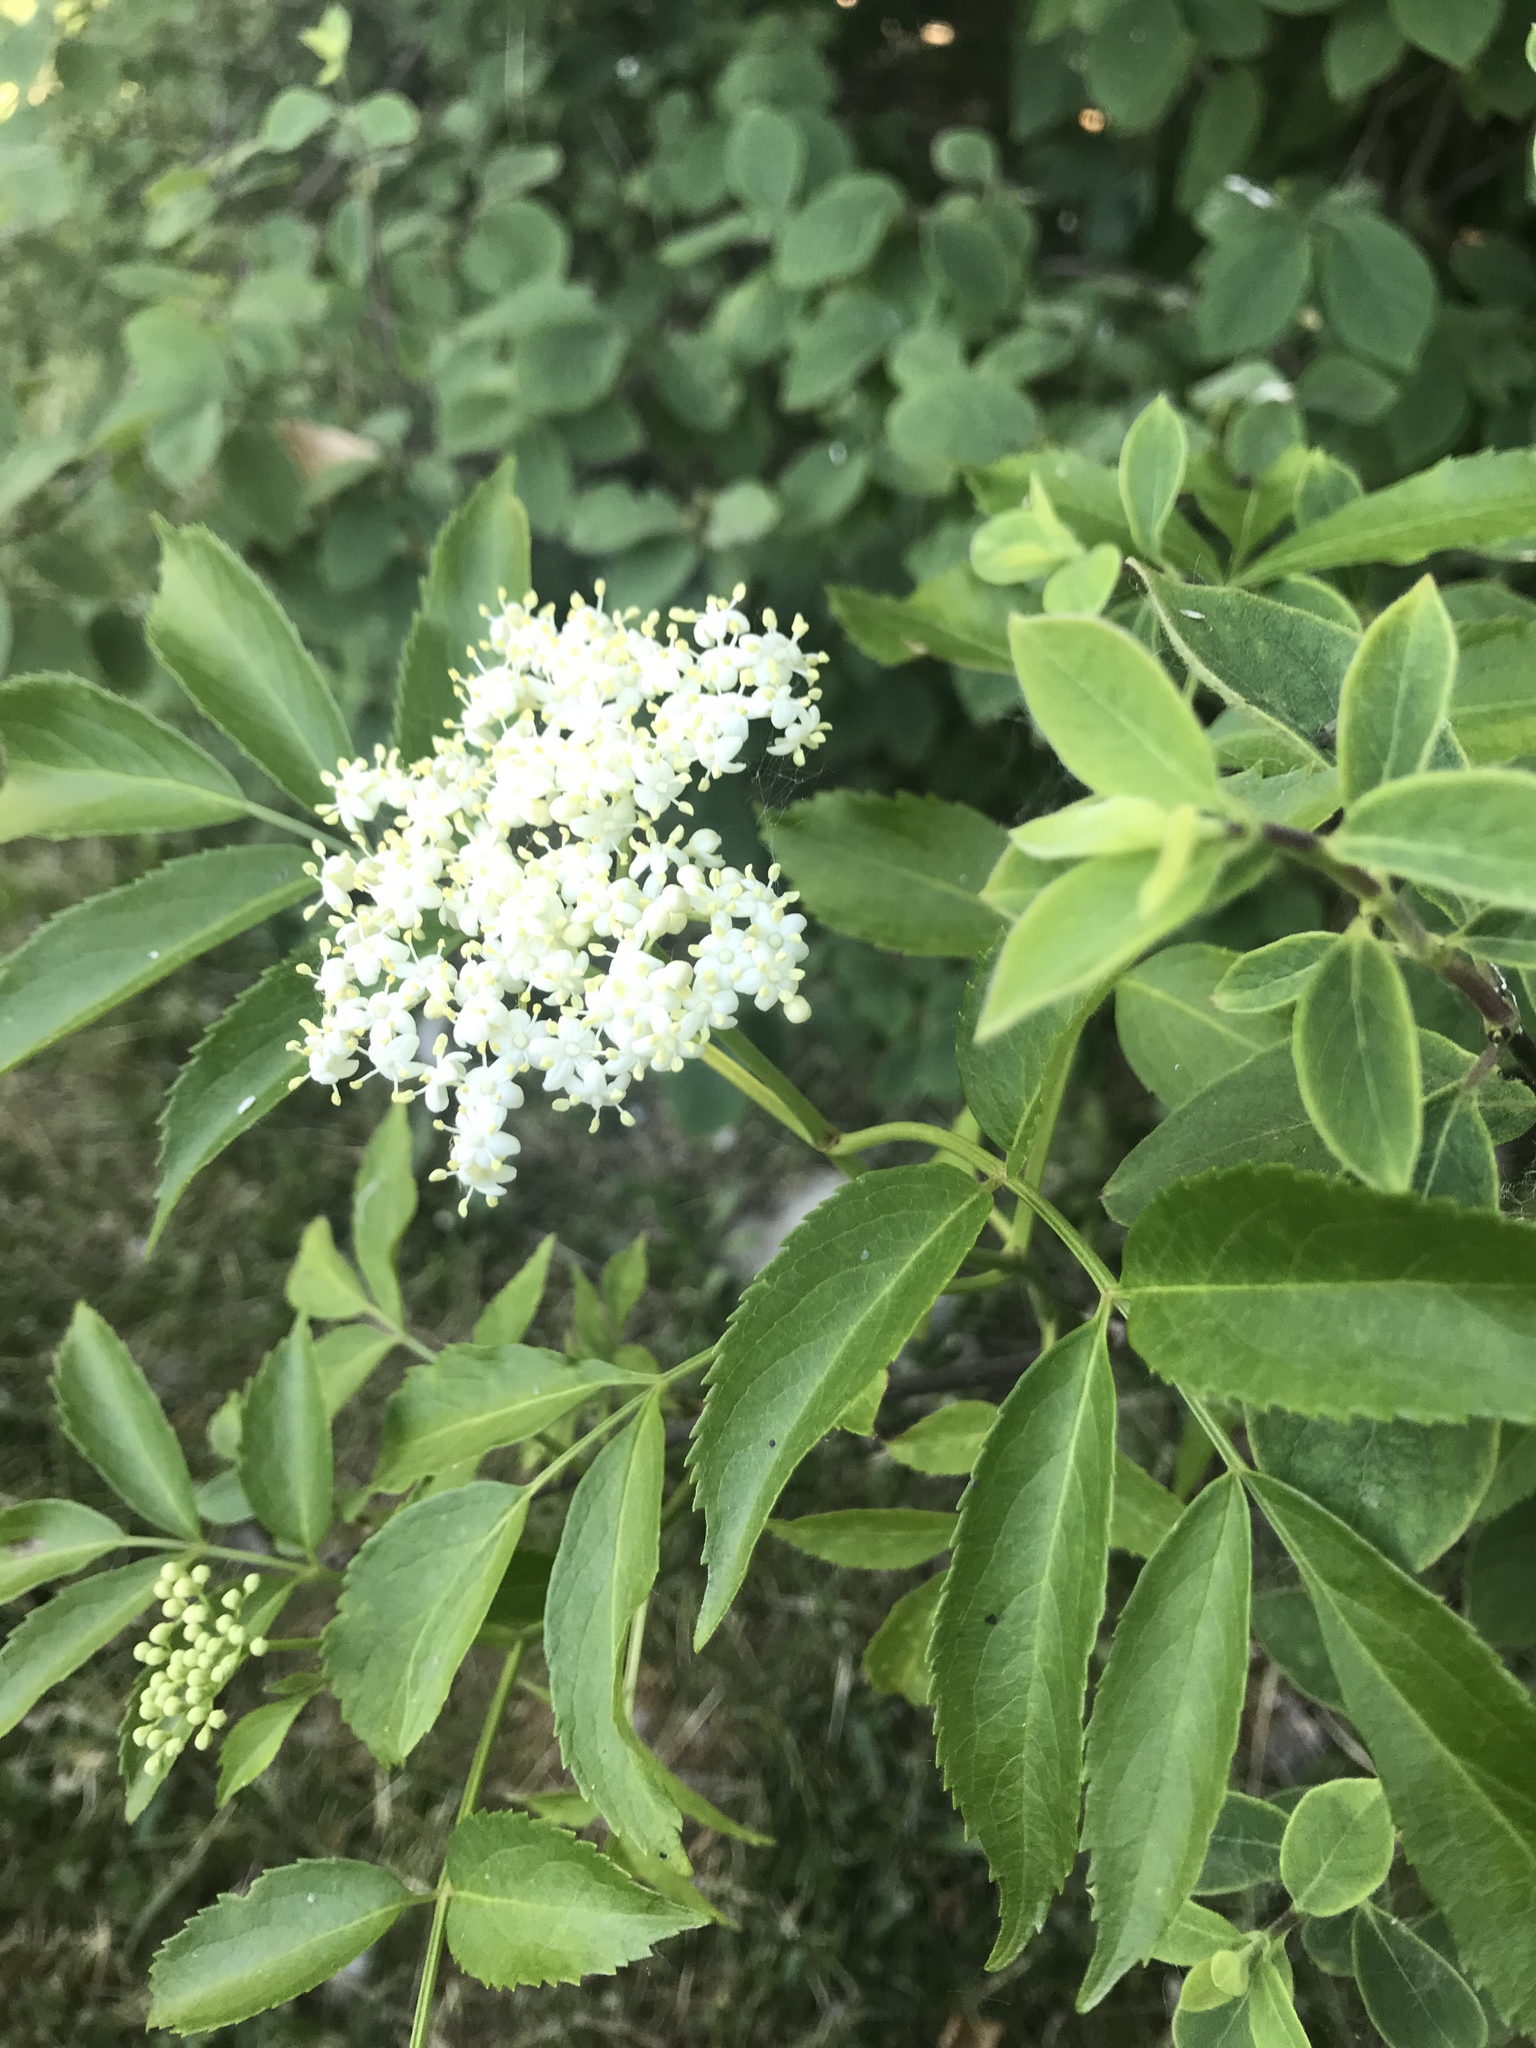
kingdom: Plantae
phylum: Tracheophyta
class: Magnoliopsida
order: Dipsacales
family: Viburnaceae
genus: Sambucus
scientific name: Sambucus canadensis
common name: American elder
